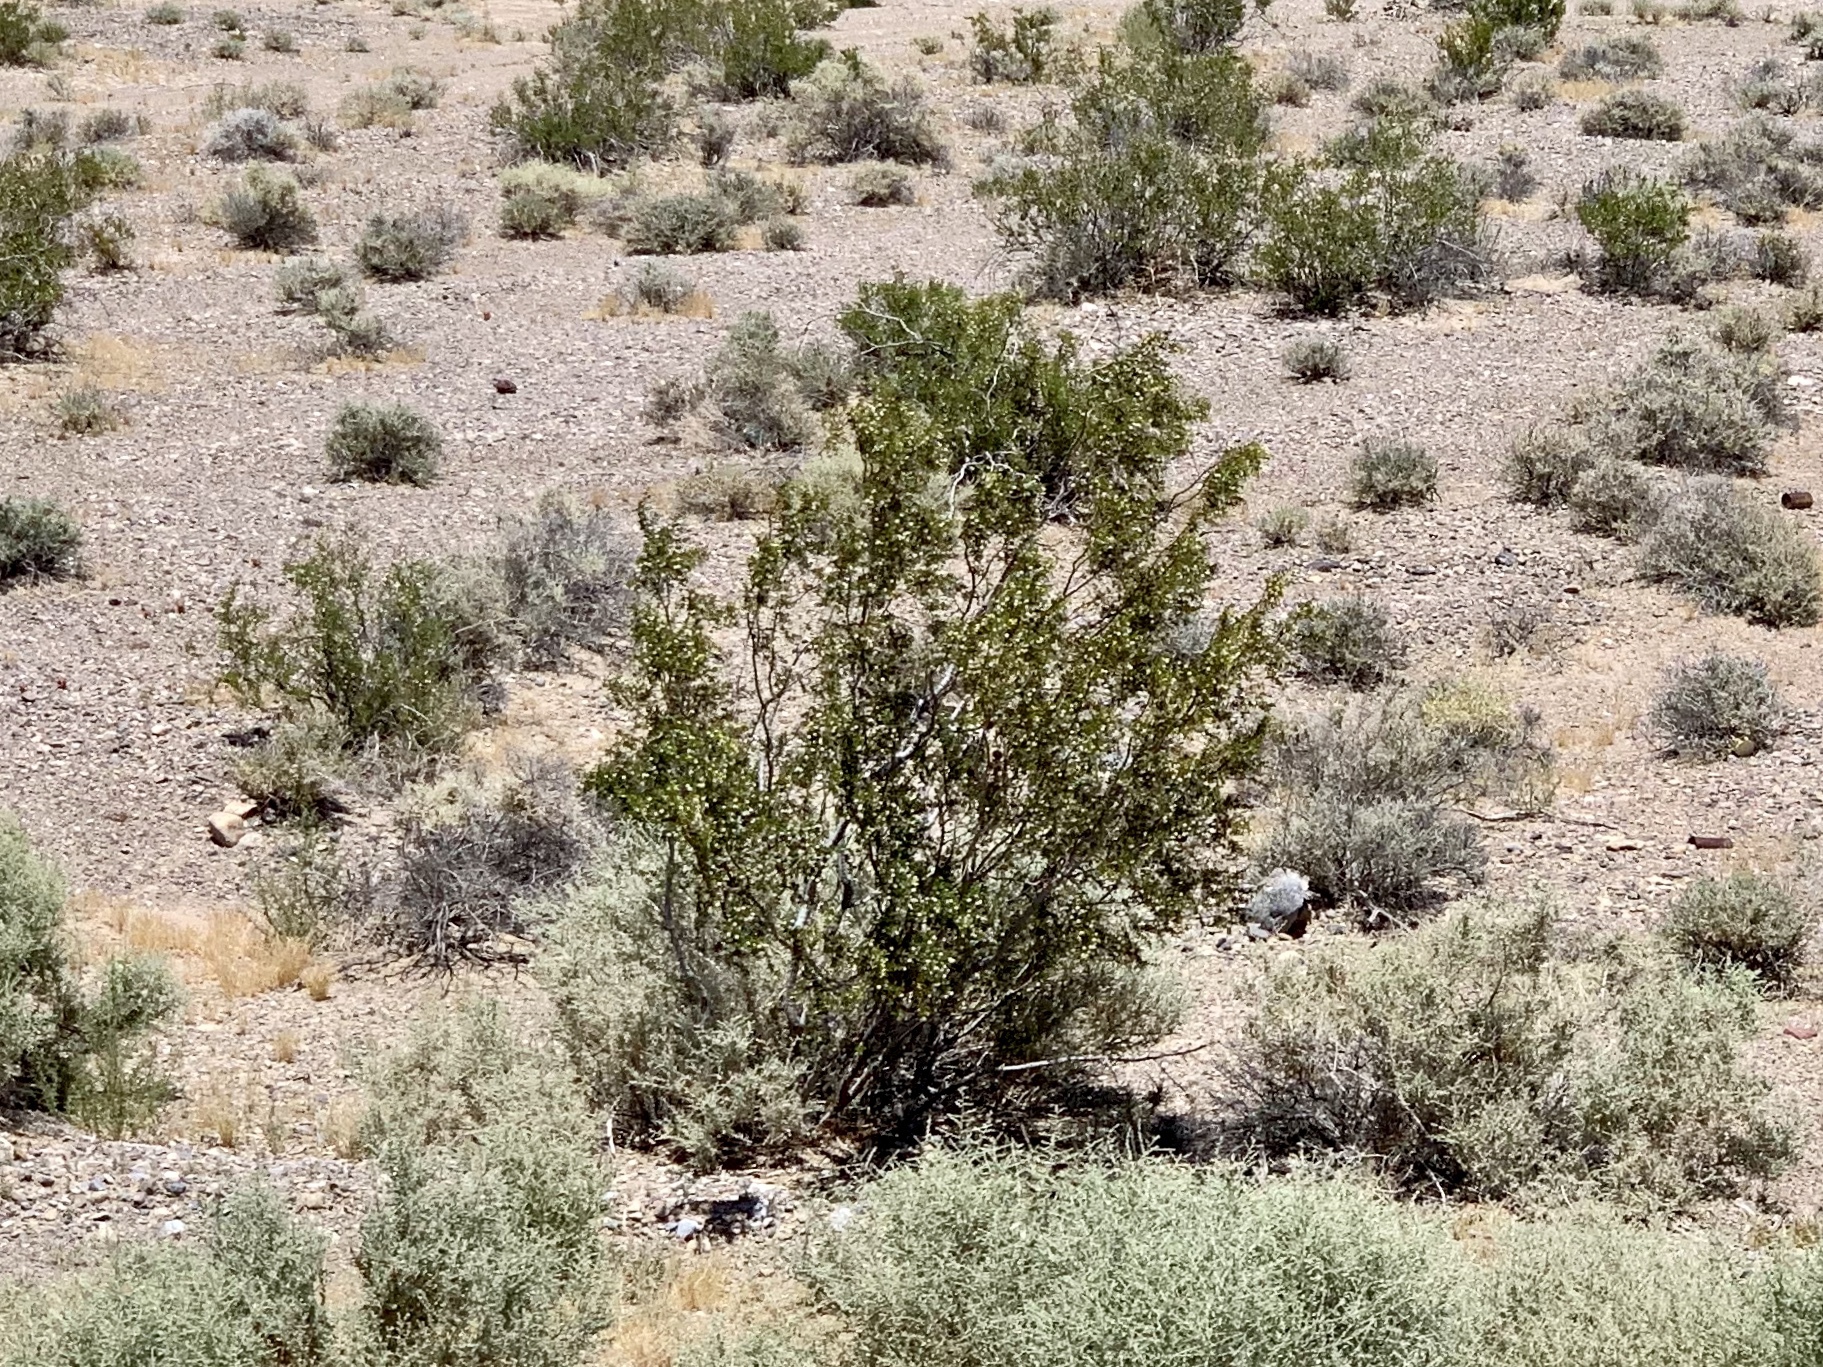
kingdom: Plantae
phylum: Tracheophyta
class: Magnoliopsida
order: Zygophyllales
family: Zygophyllaceae
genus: Larrea
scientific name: Larrea tridentata
